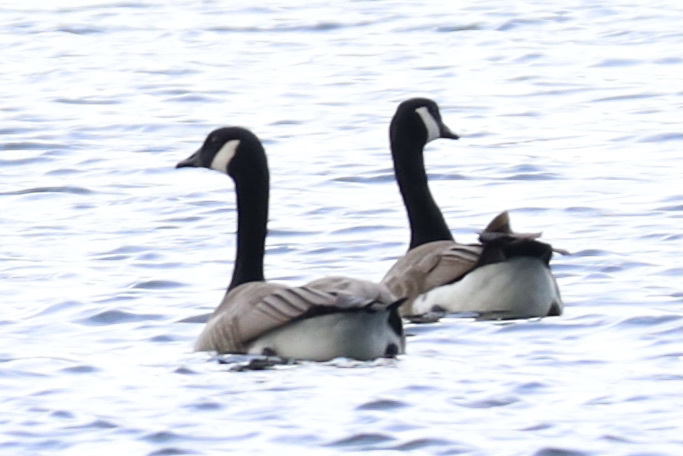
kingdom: Animalia
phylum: Chordata
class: Aves
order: Anseriformes
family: Anatidae
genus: Branta
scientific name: Branta canadensis
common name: Canada goose
